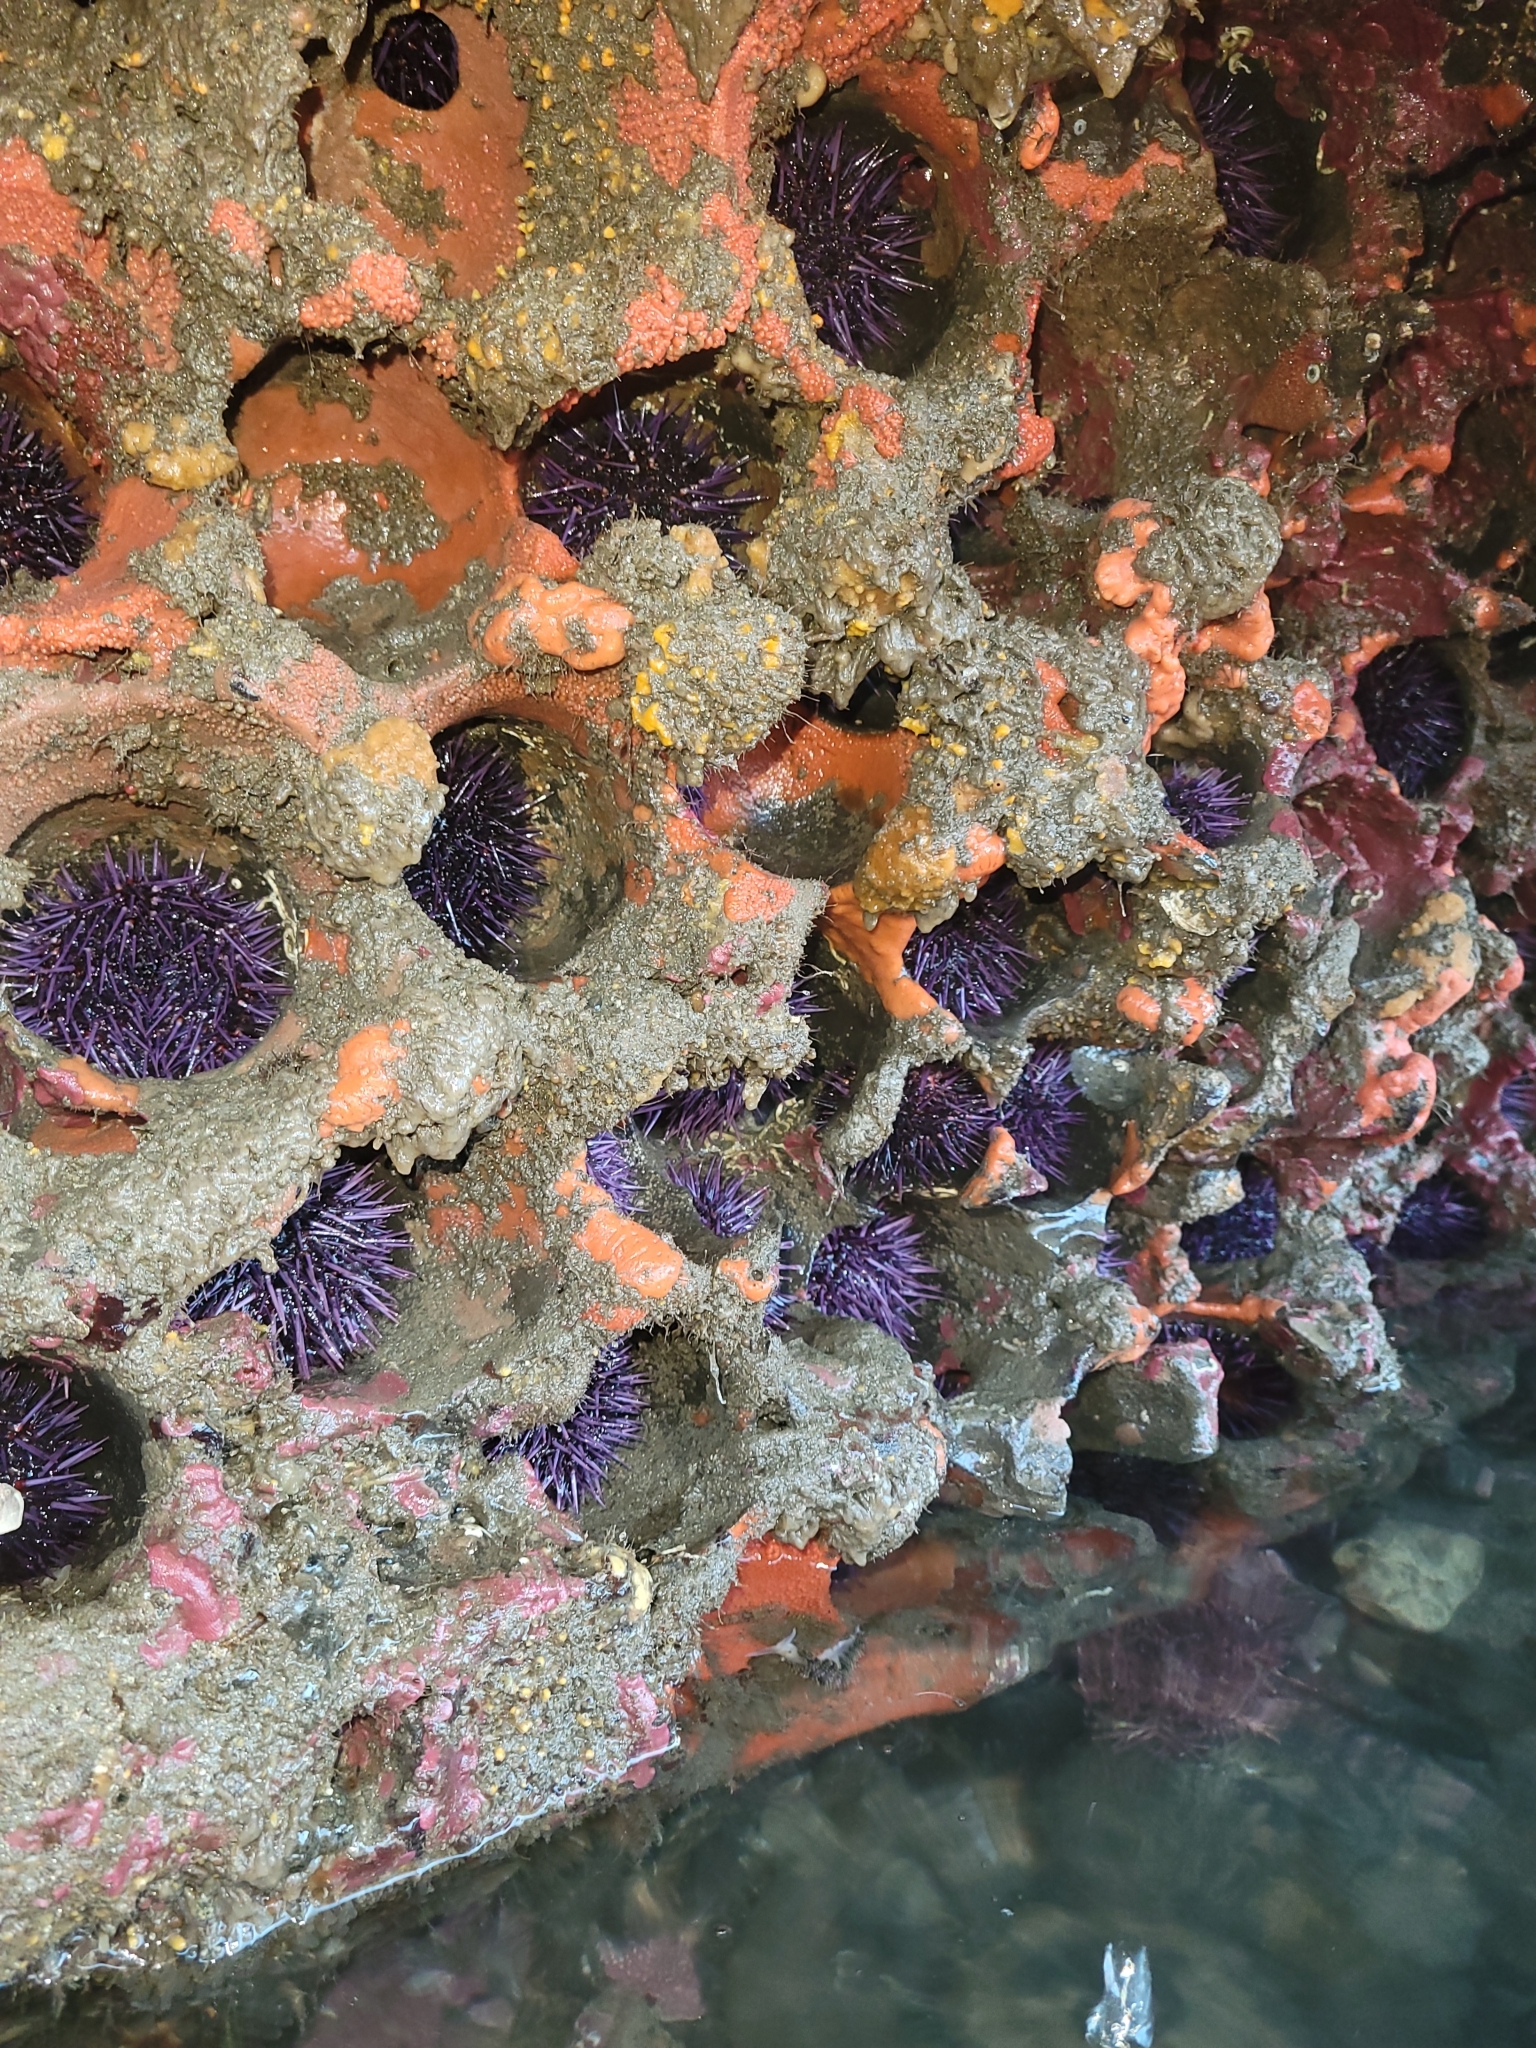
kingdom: Animalia
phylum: Echinodermata
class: Echinoidea
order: Camarodonta
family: Strongylocentrotidae
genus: Strongylocentrotus
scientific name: Strongylocentrotus purpuratus
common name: Purple sea urchin
